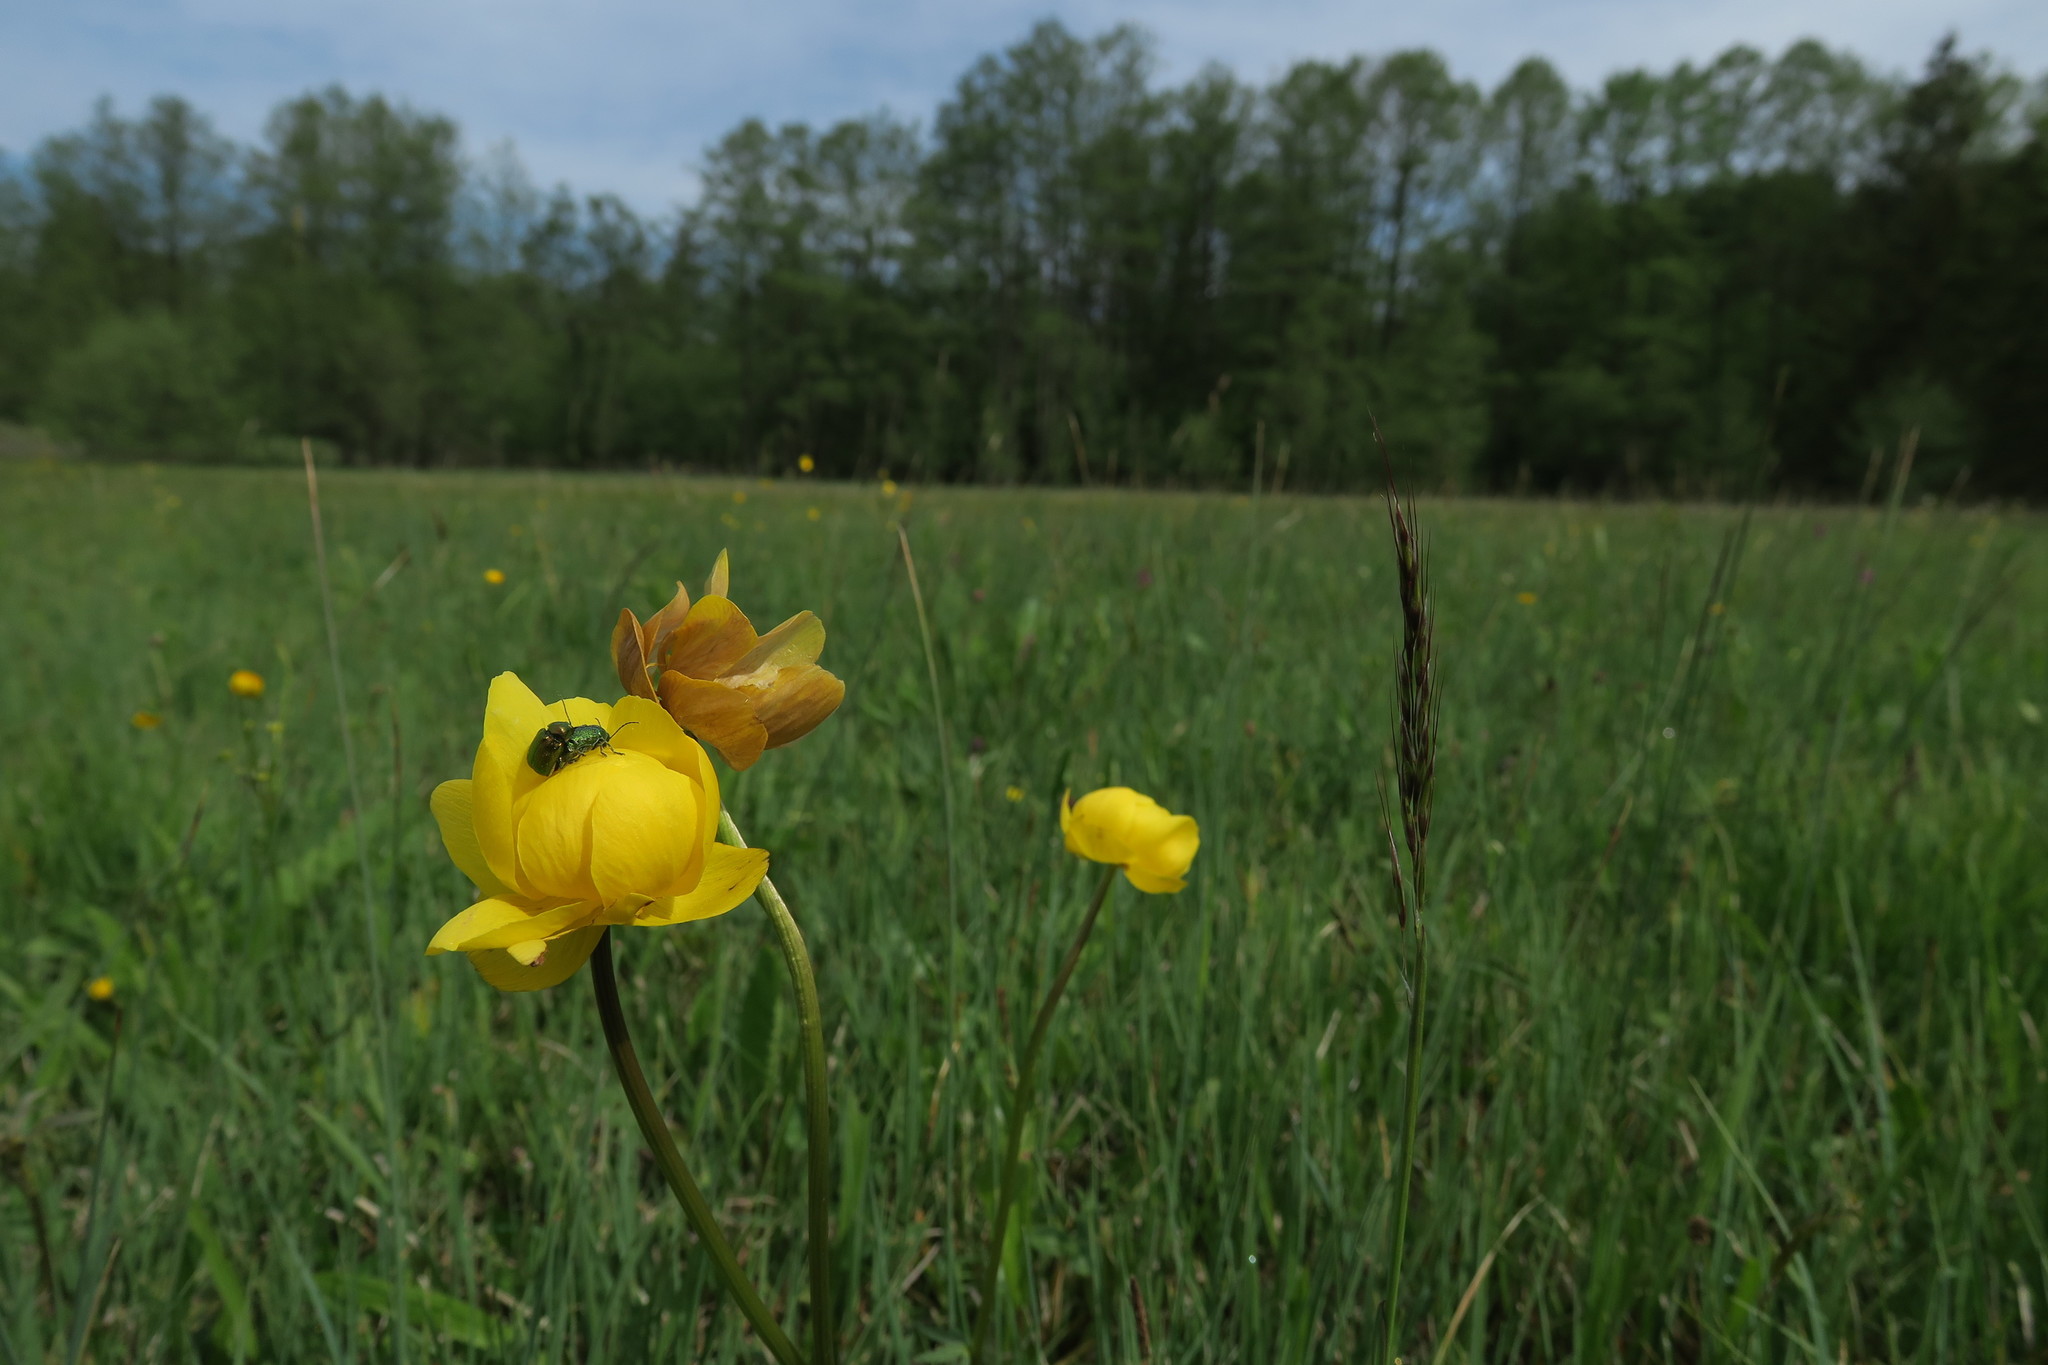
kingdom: Plantae
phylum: Tracheophyta
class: Magnoliopsida
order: Ranunculales
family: Ranunculaceae
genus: Trollius
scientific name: Trollius europaeus
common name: European globeflower
